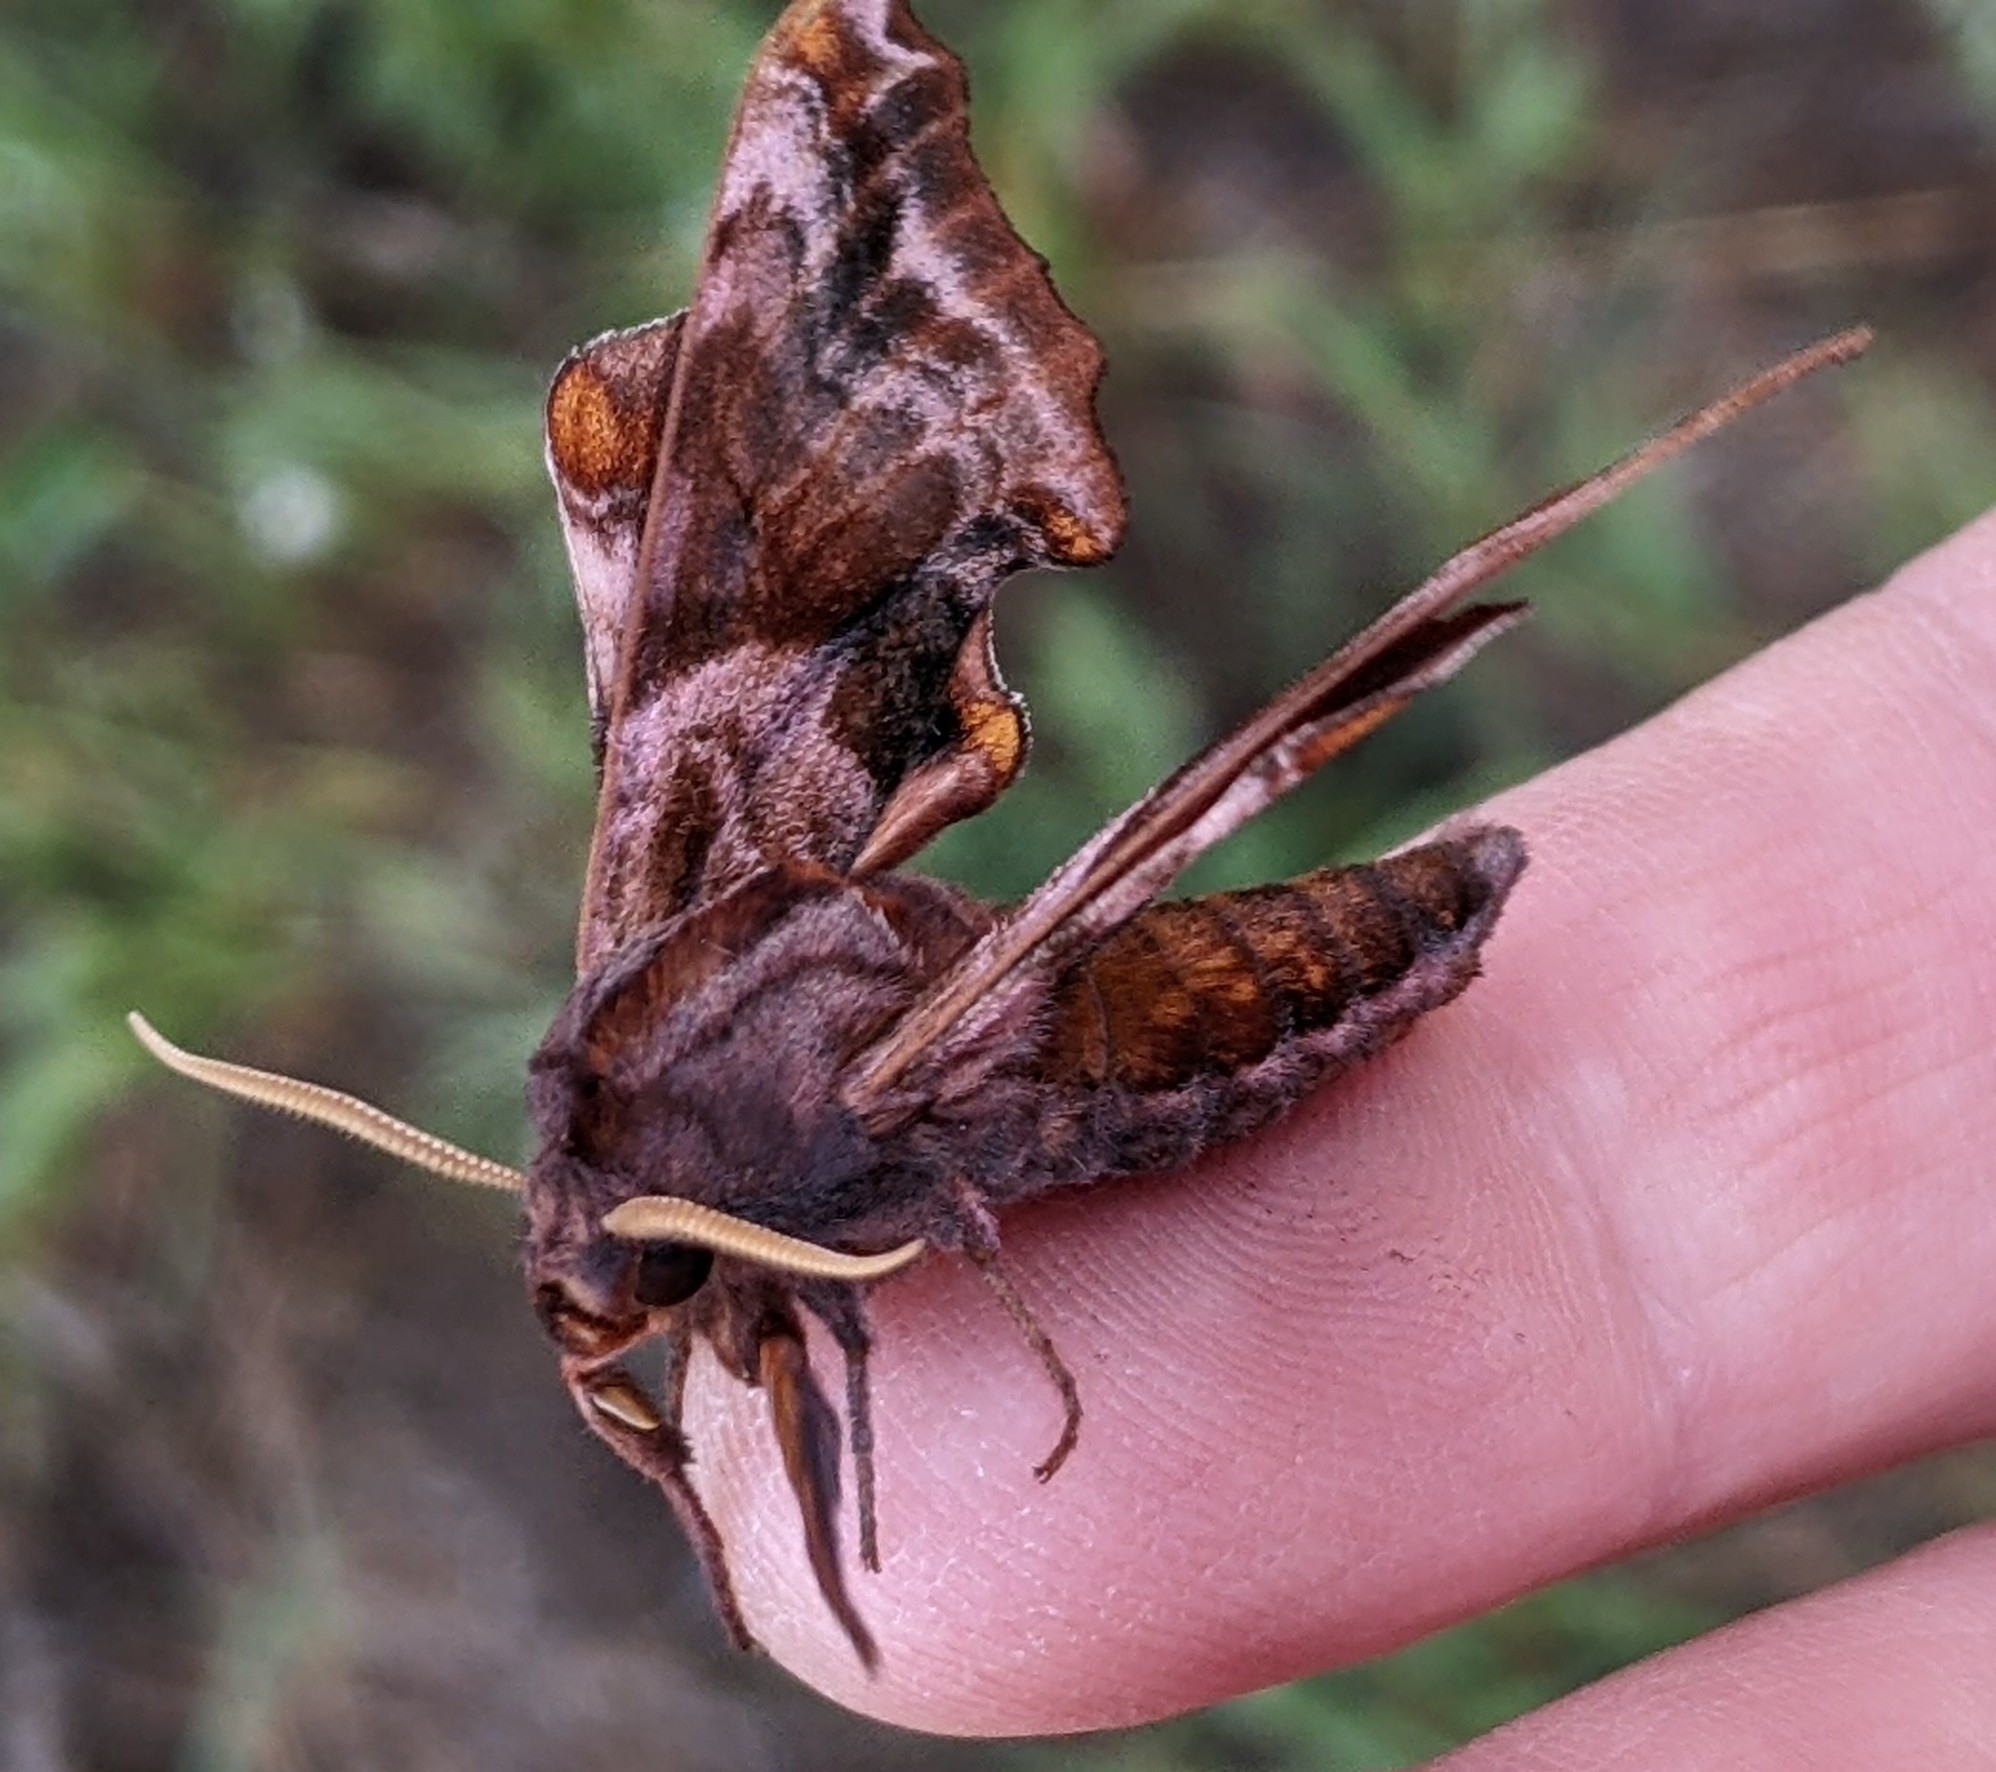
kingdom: Animalia
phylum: Arthropoda
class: Insecta
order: Lepidoptera
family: Sphingidae
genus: Paonias
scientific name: Paonias myops
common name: Small-eyed sphinx
